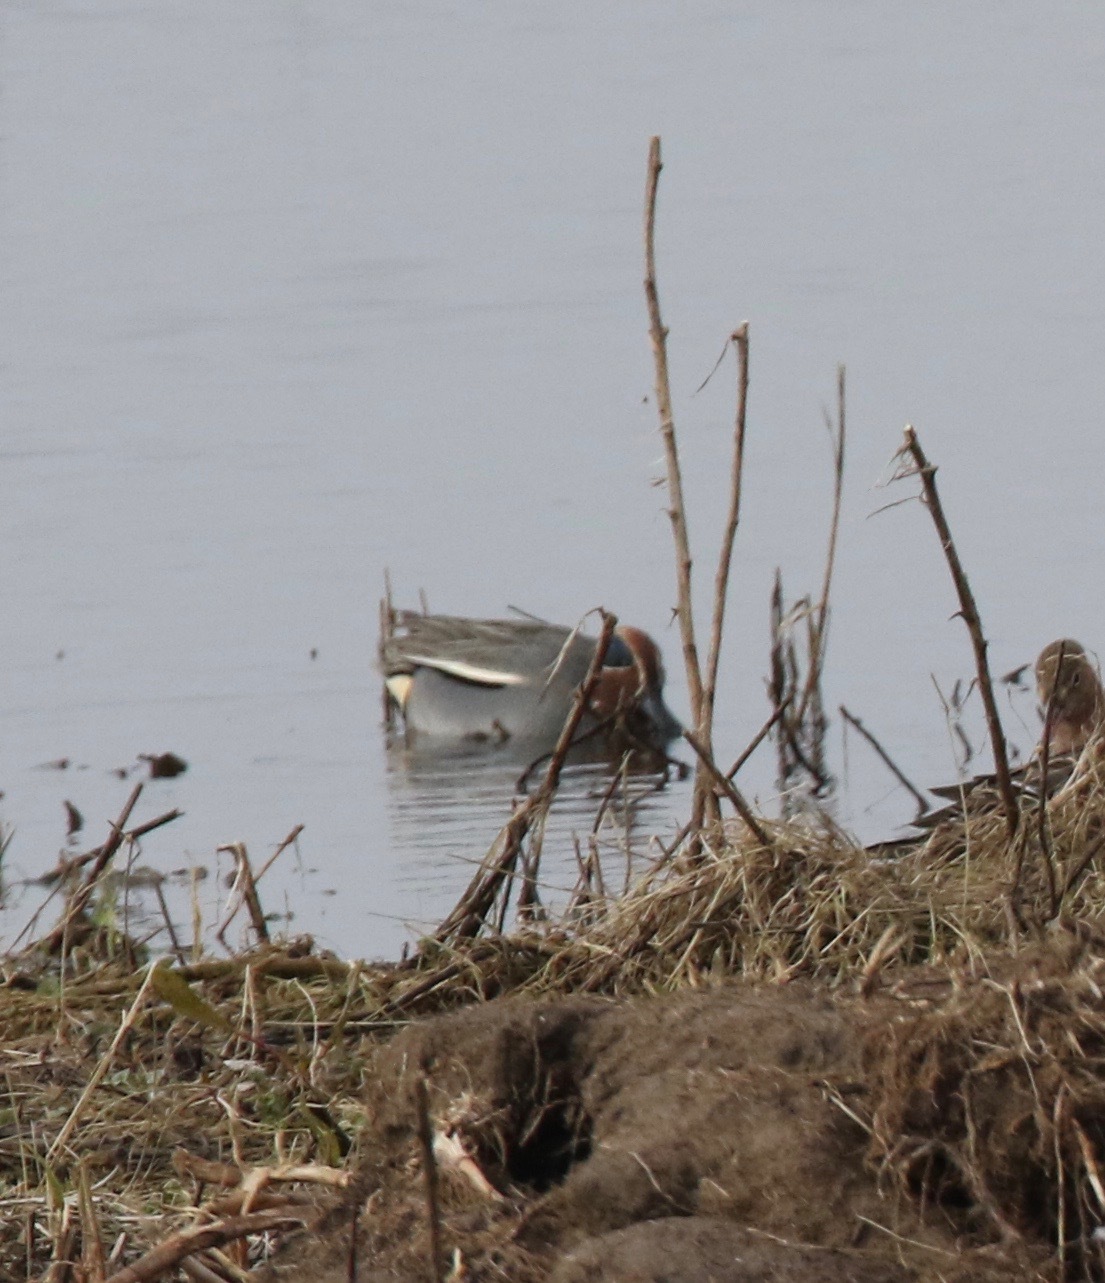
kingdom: Animalia
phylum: Chordata
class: Aves
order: Anseriformes
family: Anatidae
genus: Anas
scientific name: Anas crecca
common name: Eurasian teal
